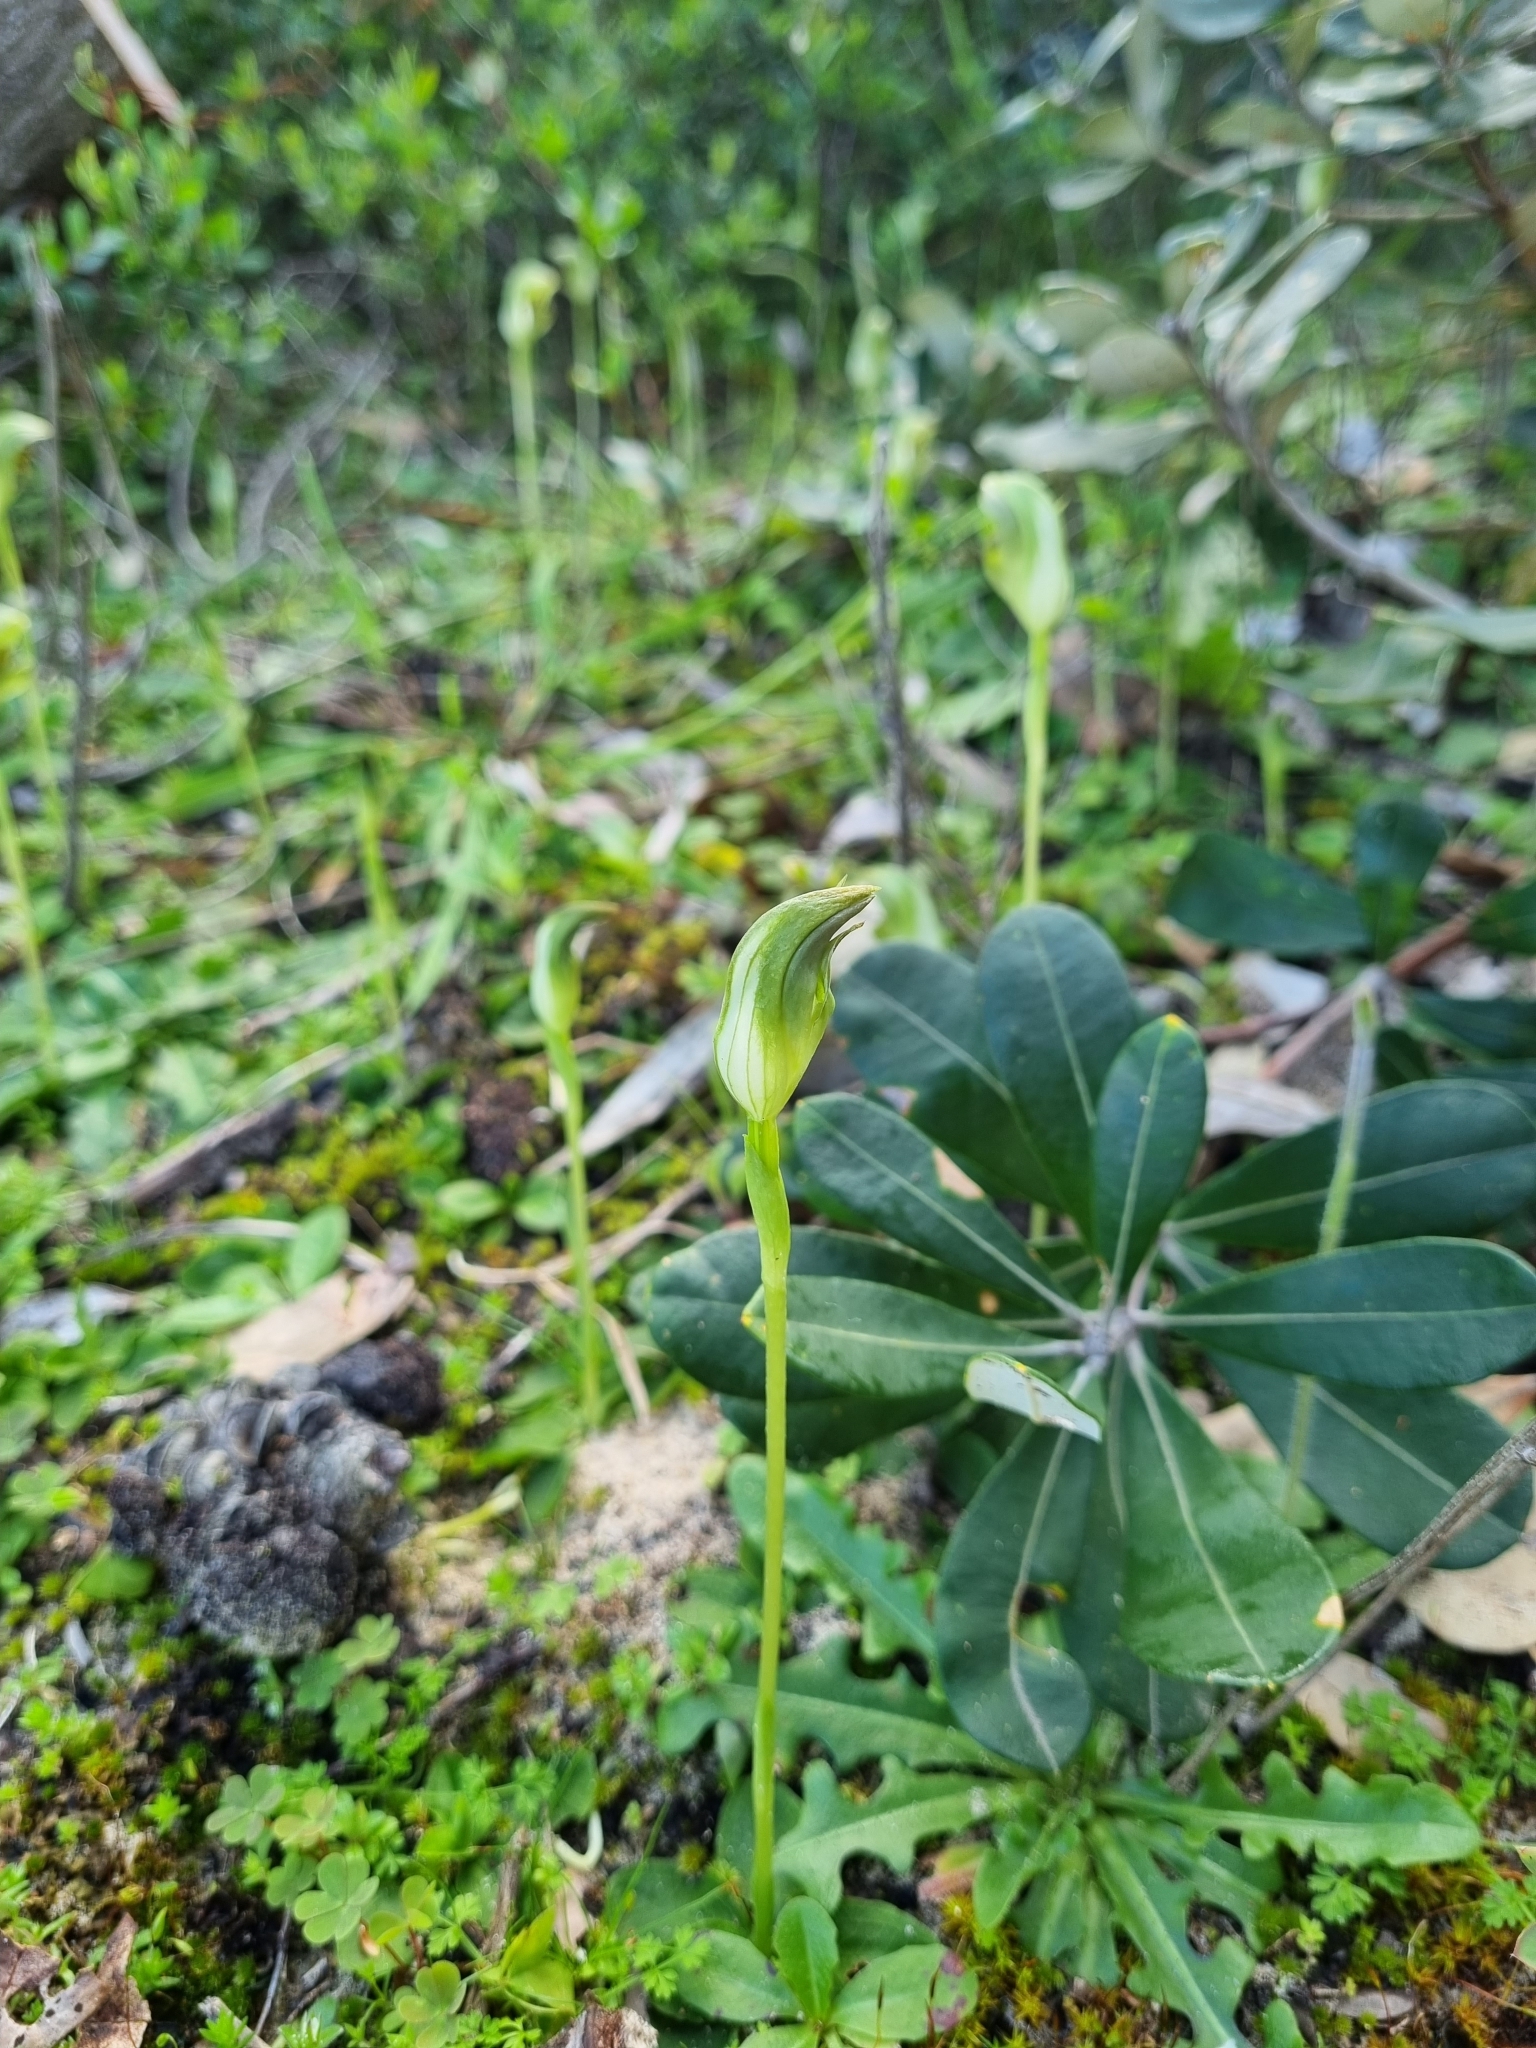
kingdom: Plantae
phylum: Tracheophyta
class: Liliopsida
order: Asparagales
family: Orchidaceae
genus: Pterostylis
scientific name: Pterostylis curta
